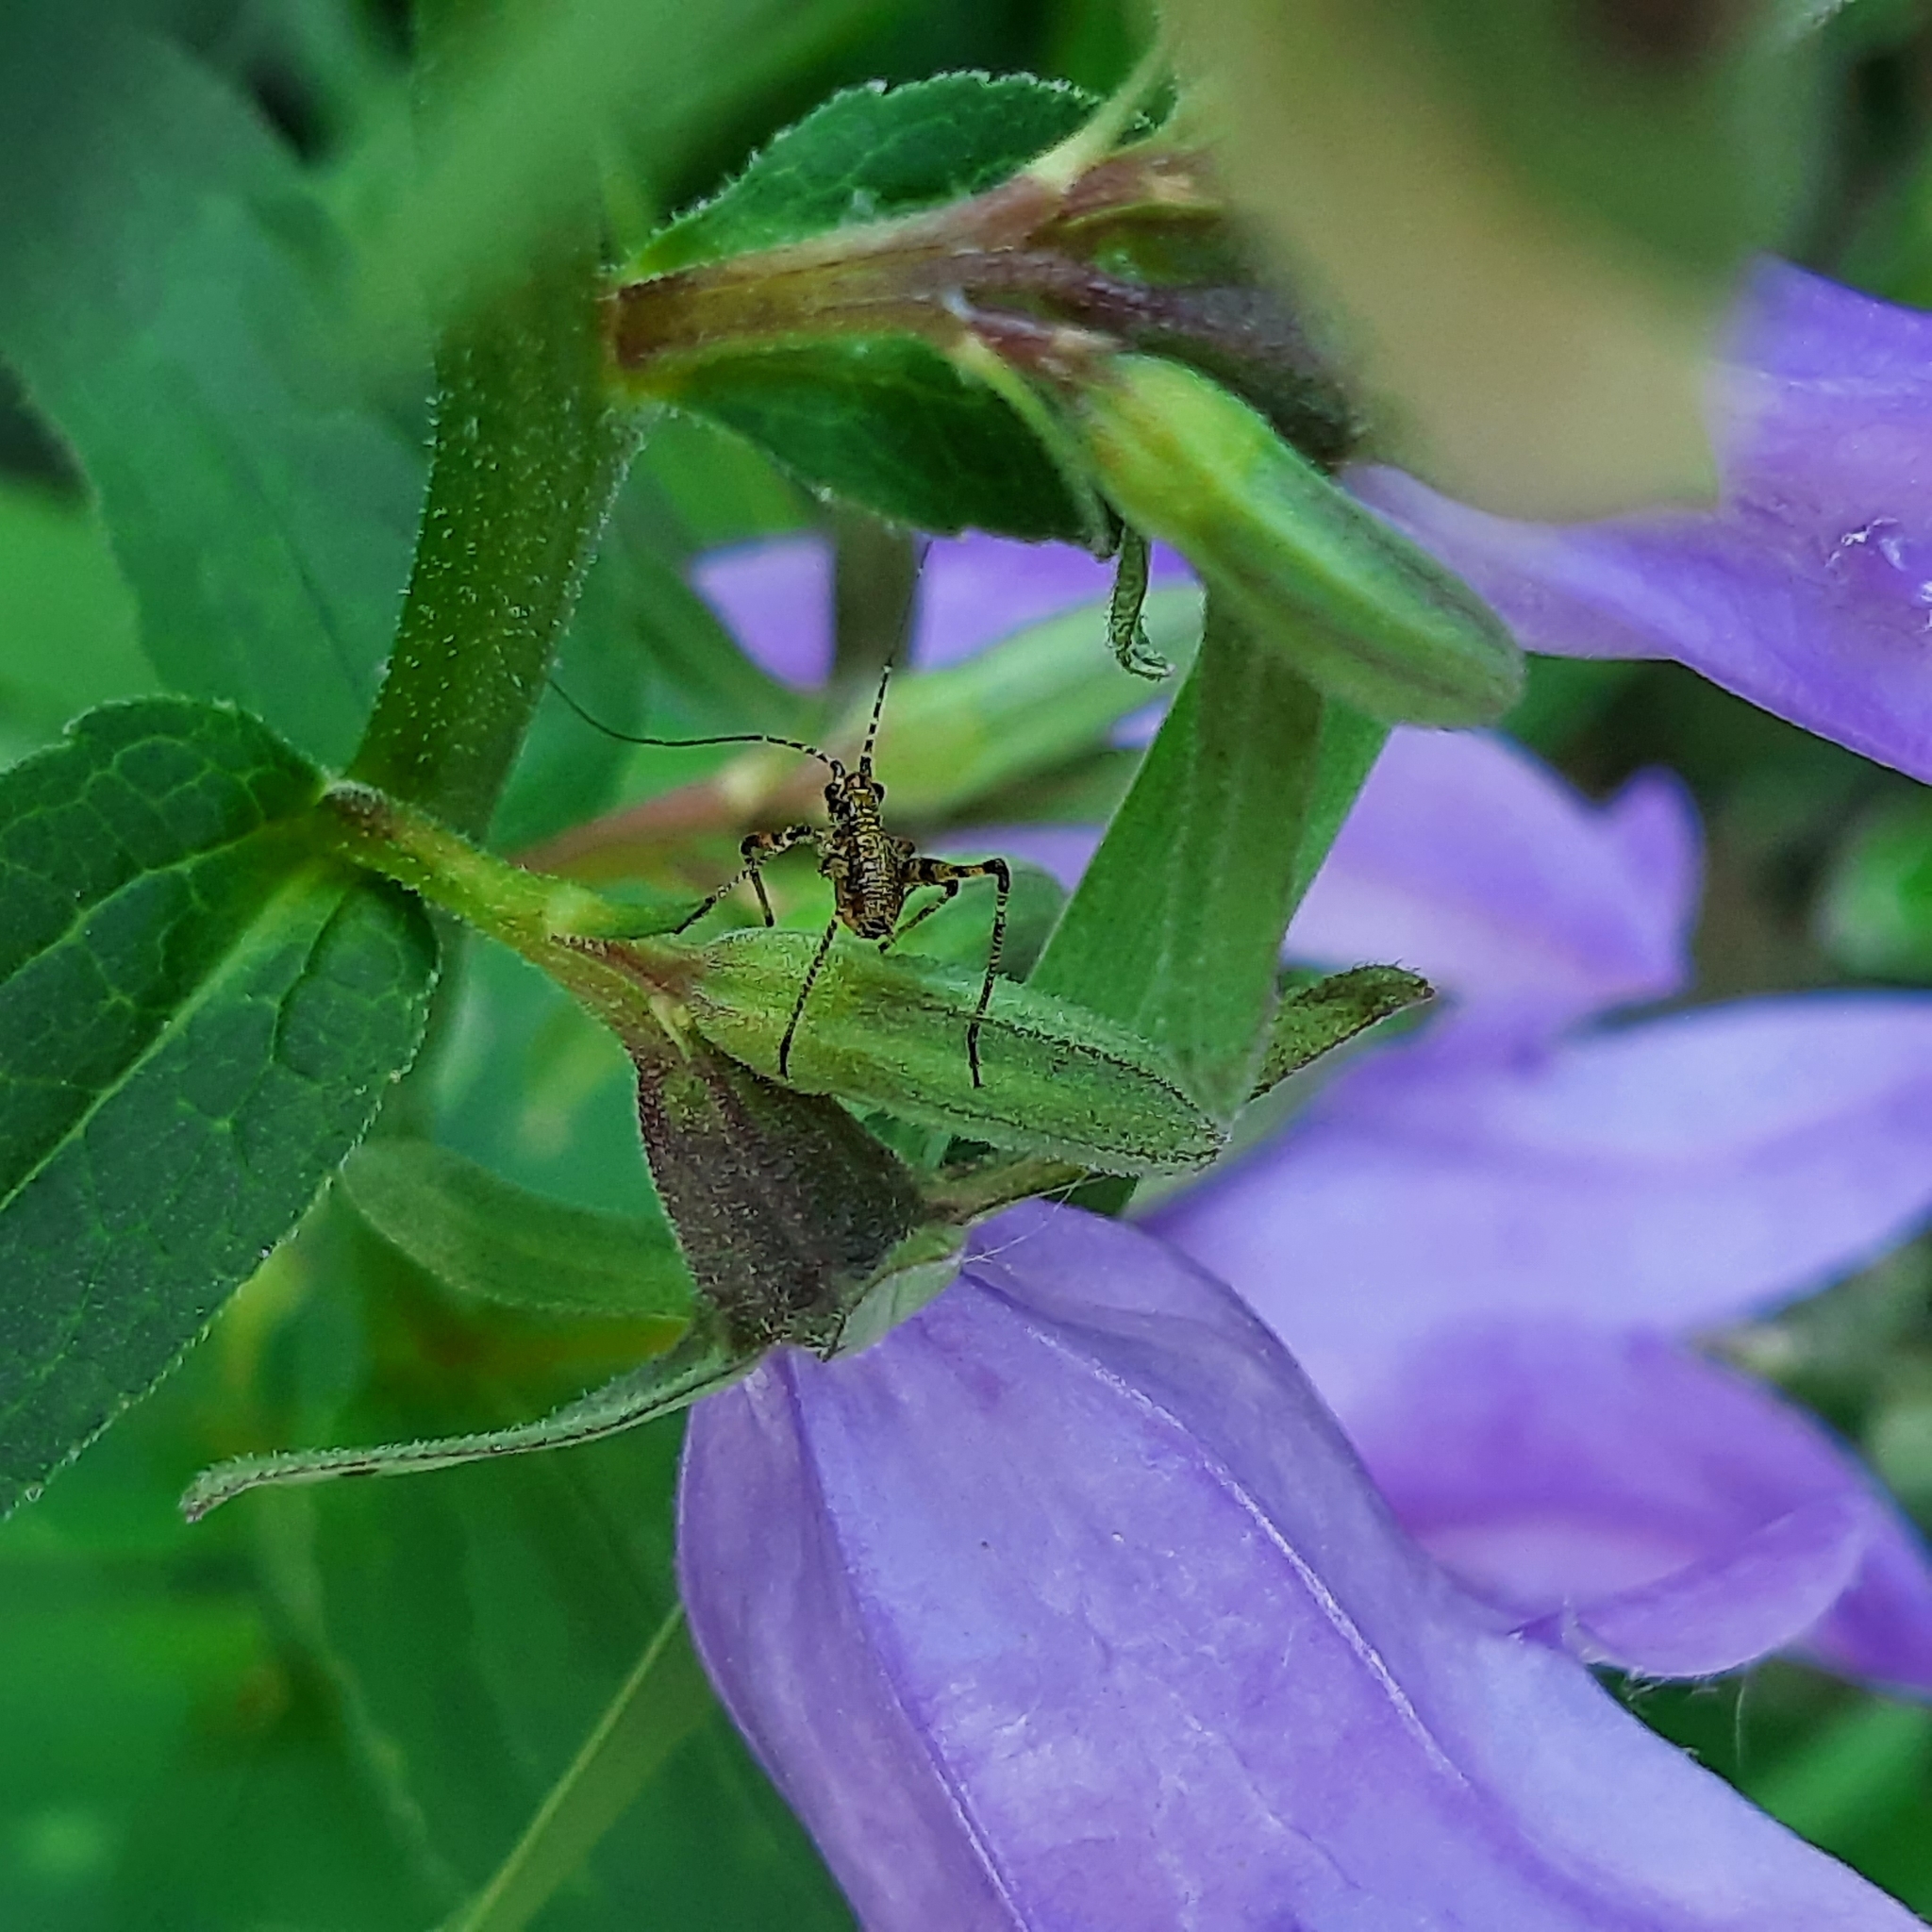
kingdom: Plantae
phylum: Tracheophyta
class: Magnoliopsida
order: Asterales
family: Campanulaceae
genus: Campanula
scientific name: Campanula rapunculoides
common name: Creeping bellflower
